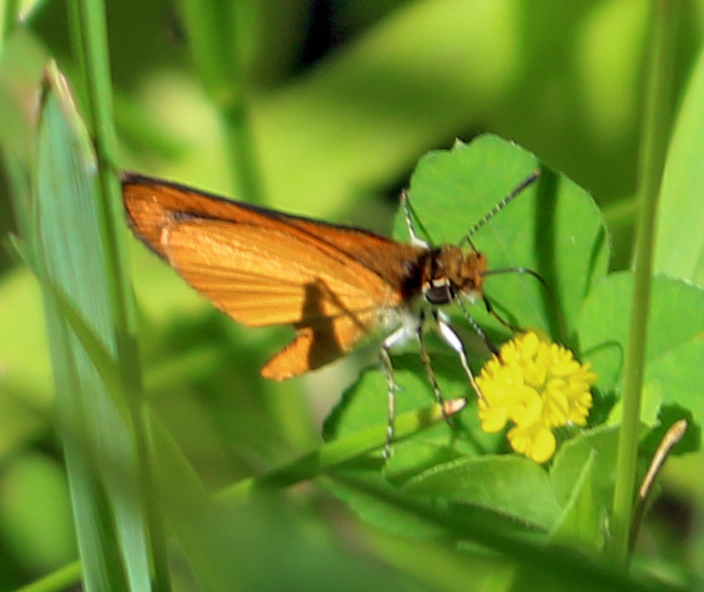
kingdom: Animalia
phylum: Arthropoda
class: Insecta
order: Lepidoptera
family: Hesperiidae
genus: Ancyloxypha
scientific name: Ancyloxypha numitor
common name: Least skipper
